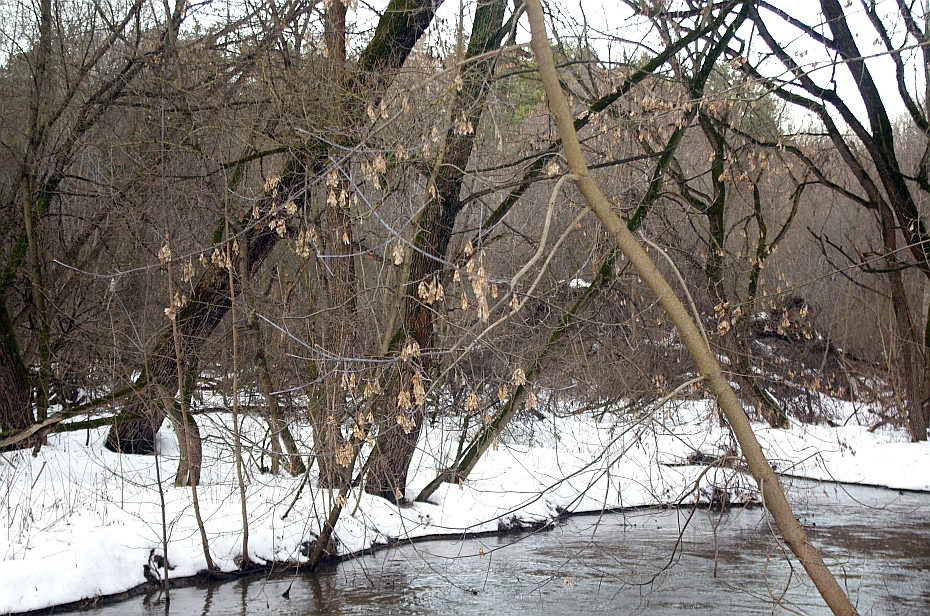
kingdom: Plantae
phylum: Tracheophyta
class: Magnoliopsida
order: Sapindales
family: Sapindaceae
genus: Acer
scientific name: Acer negundo
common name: Ashleaf maple
